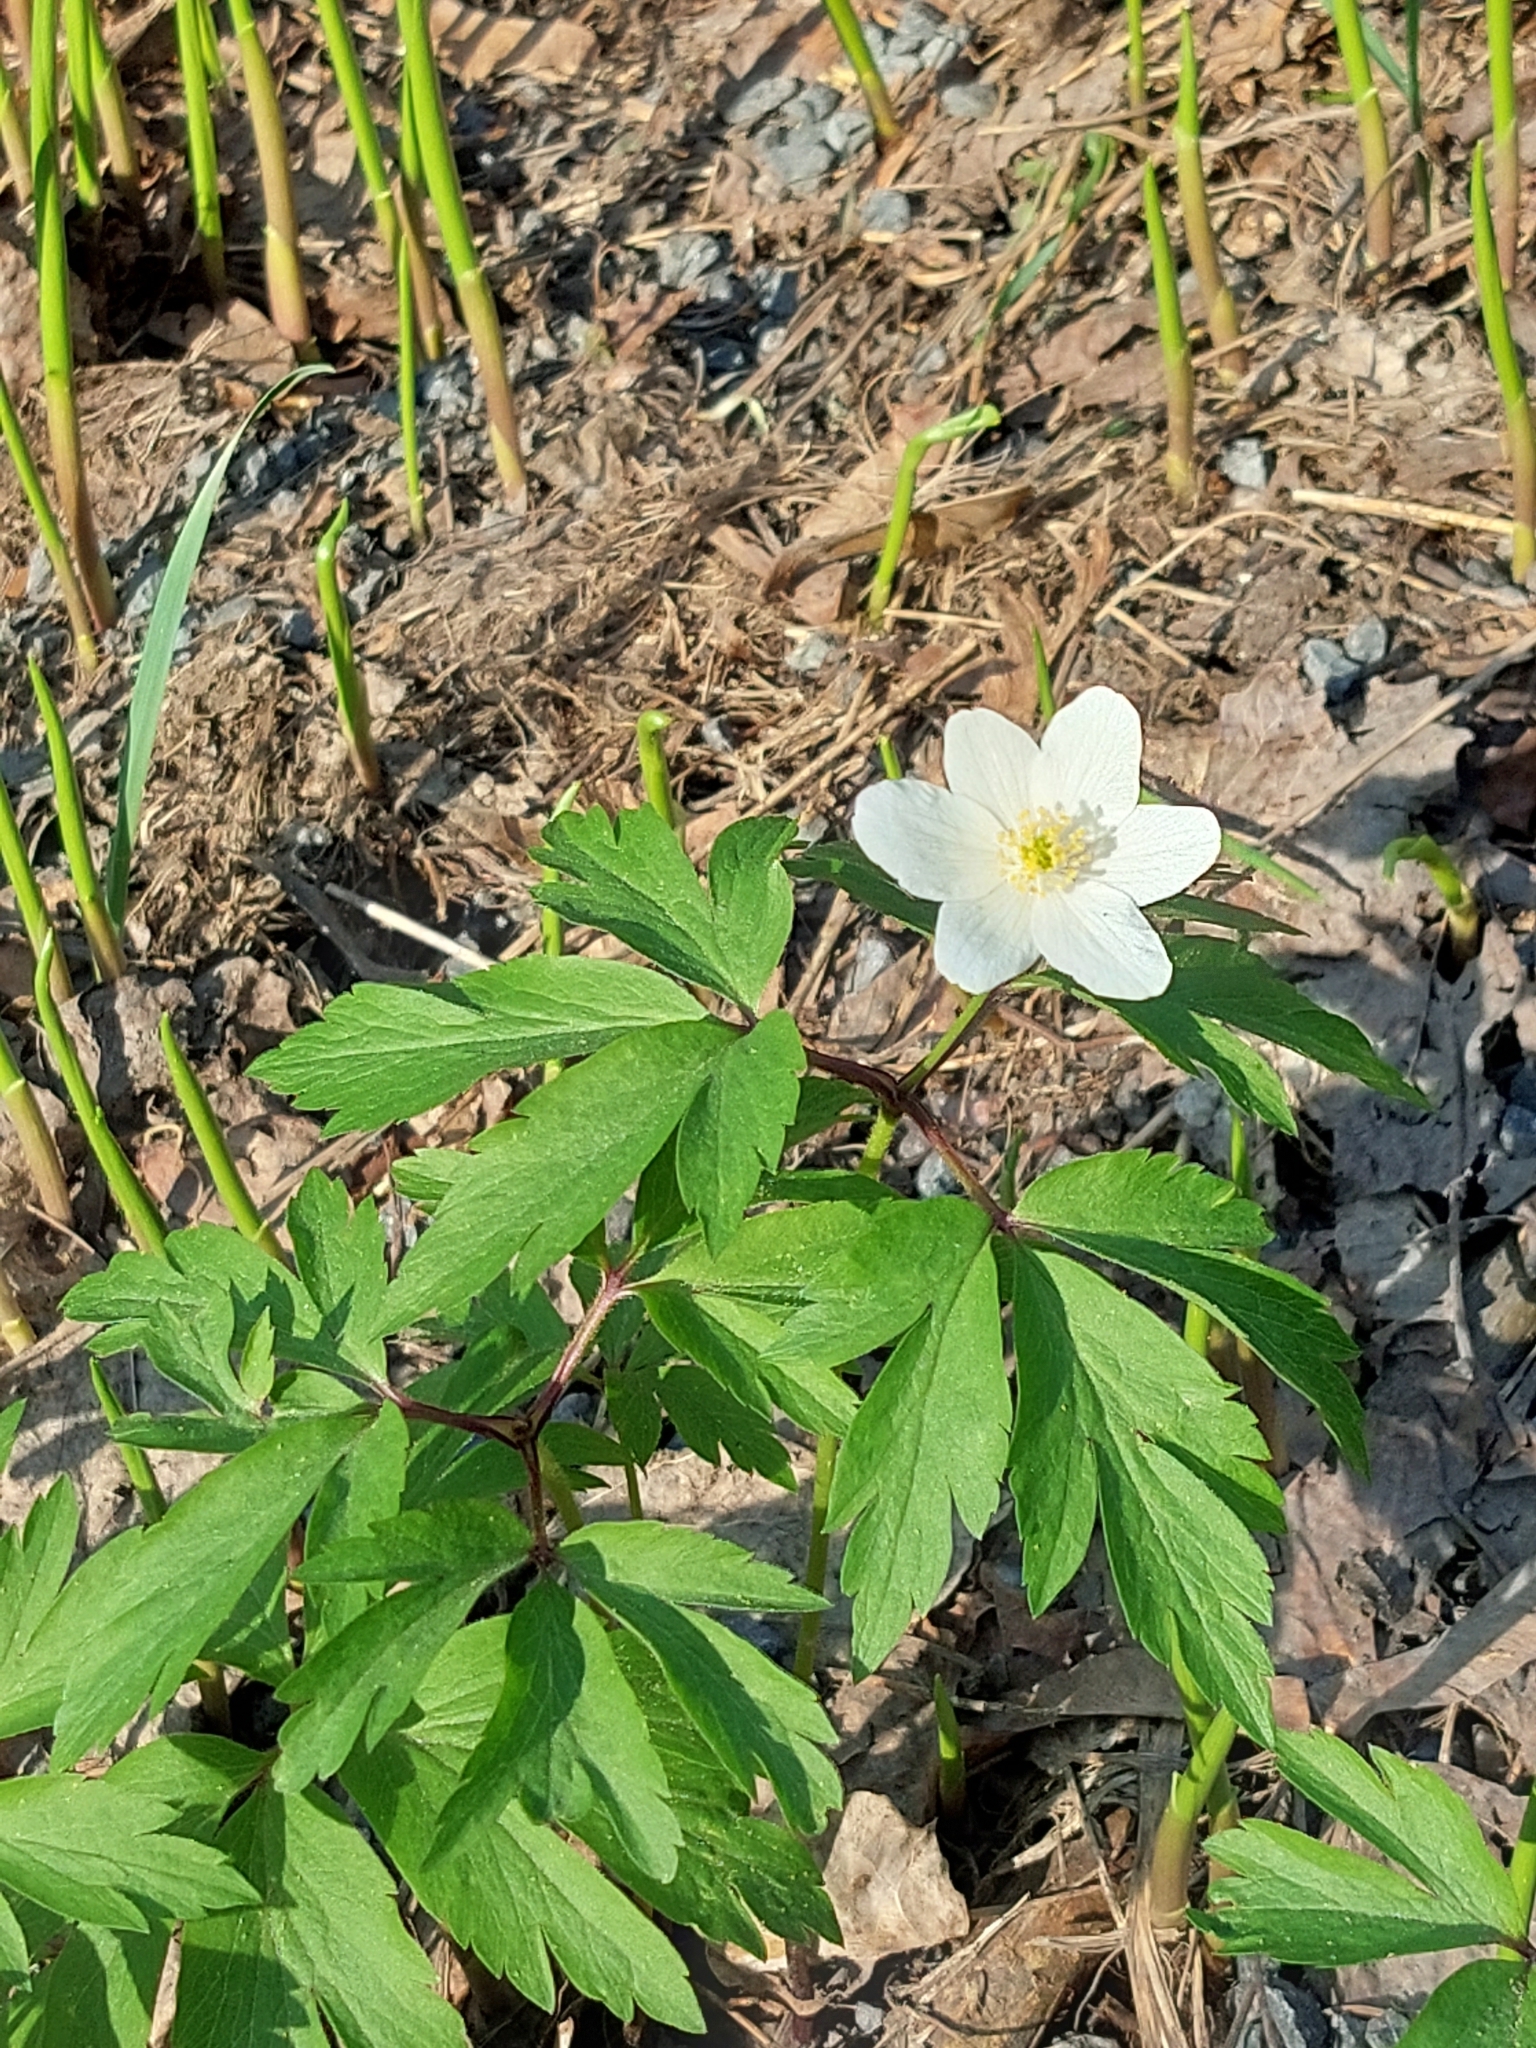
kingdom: Plantae
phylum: Tracheophyta
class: Magnoliopsida
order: Ranunculales
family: Ranunculaceae
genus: Anemone
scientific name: Anemone nemorosa
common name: Wood anemone
